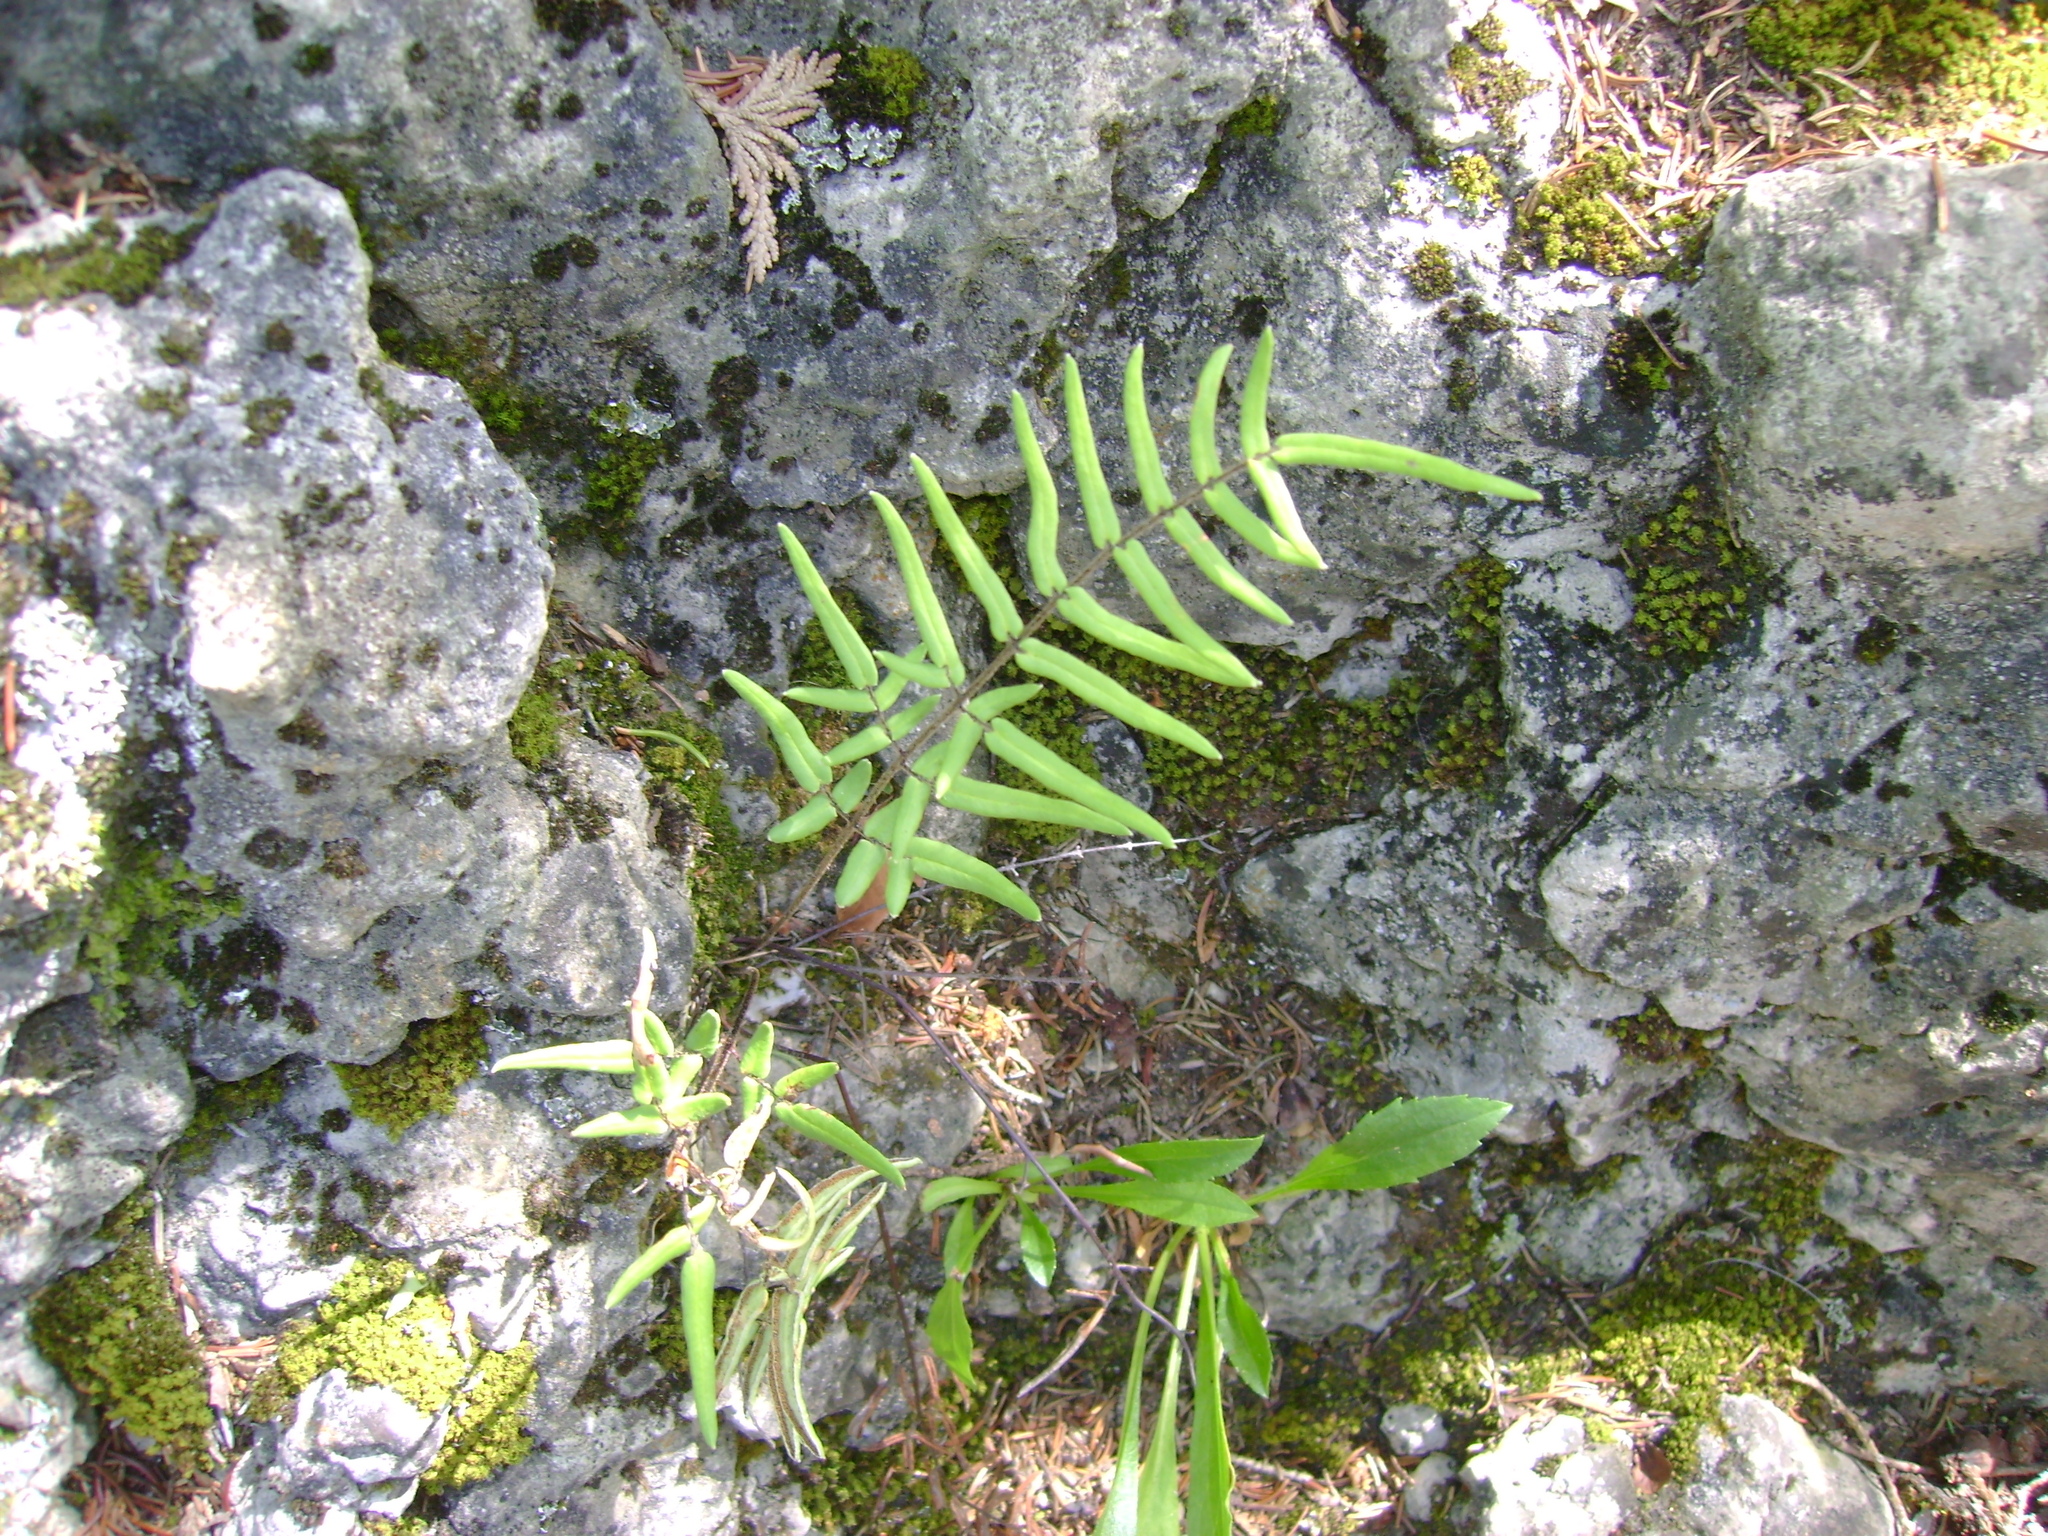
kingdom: Plantae
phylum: Tracheophyta
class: Polypodiopsida
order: Polypodiales
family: Pteridaceae
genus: Pellaea
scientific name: Pellaea atropurpurea
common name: Hairy cliffbrake
